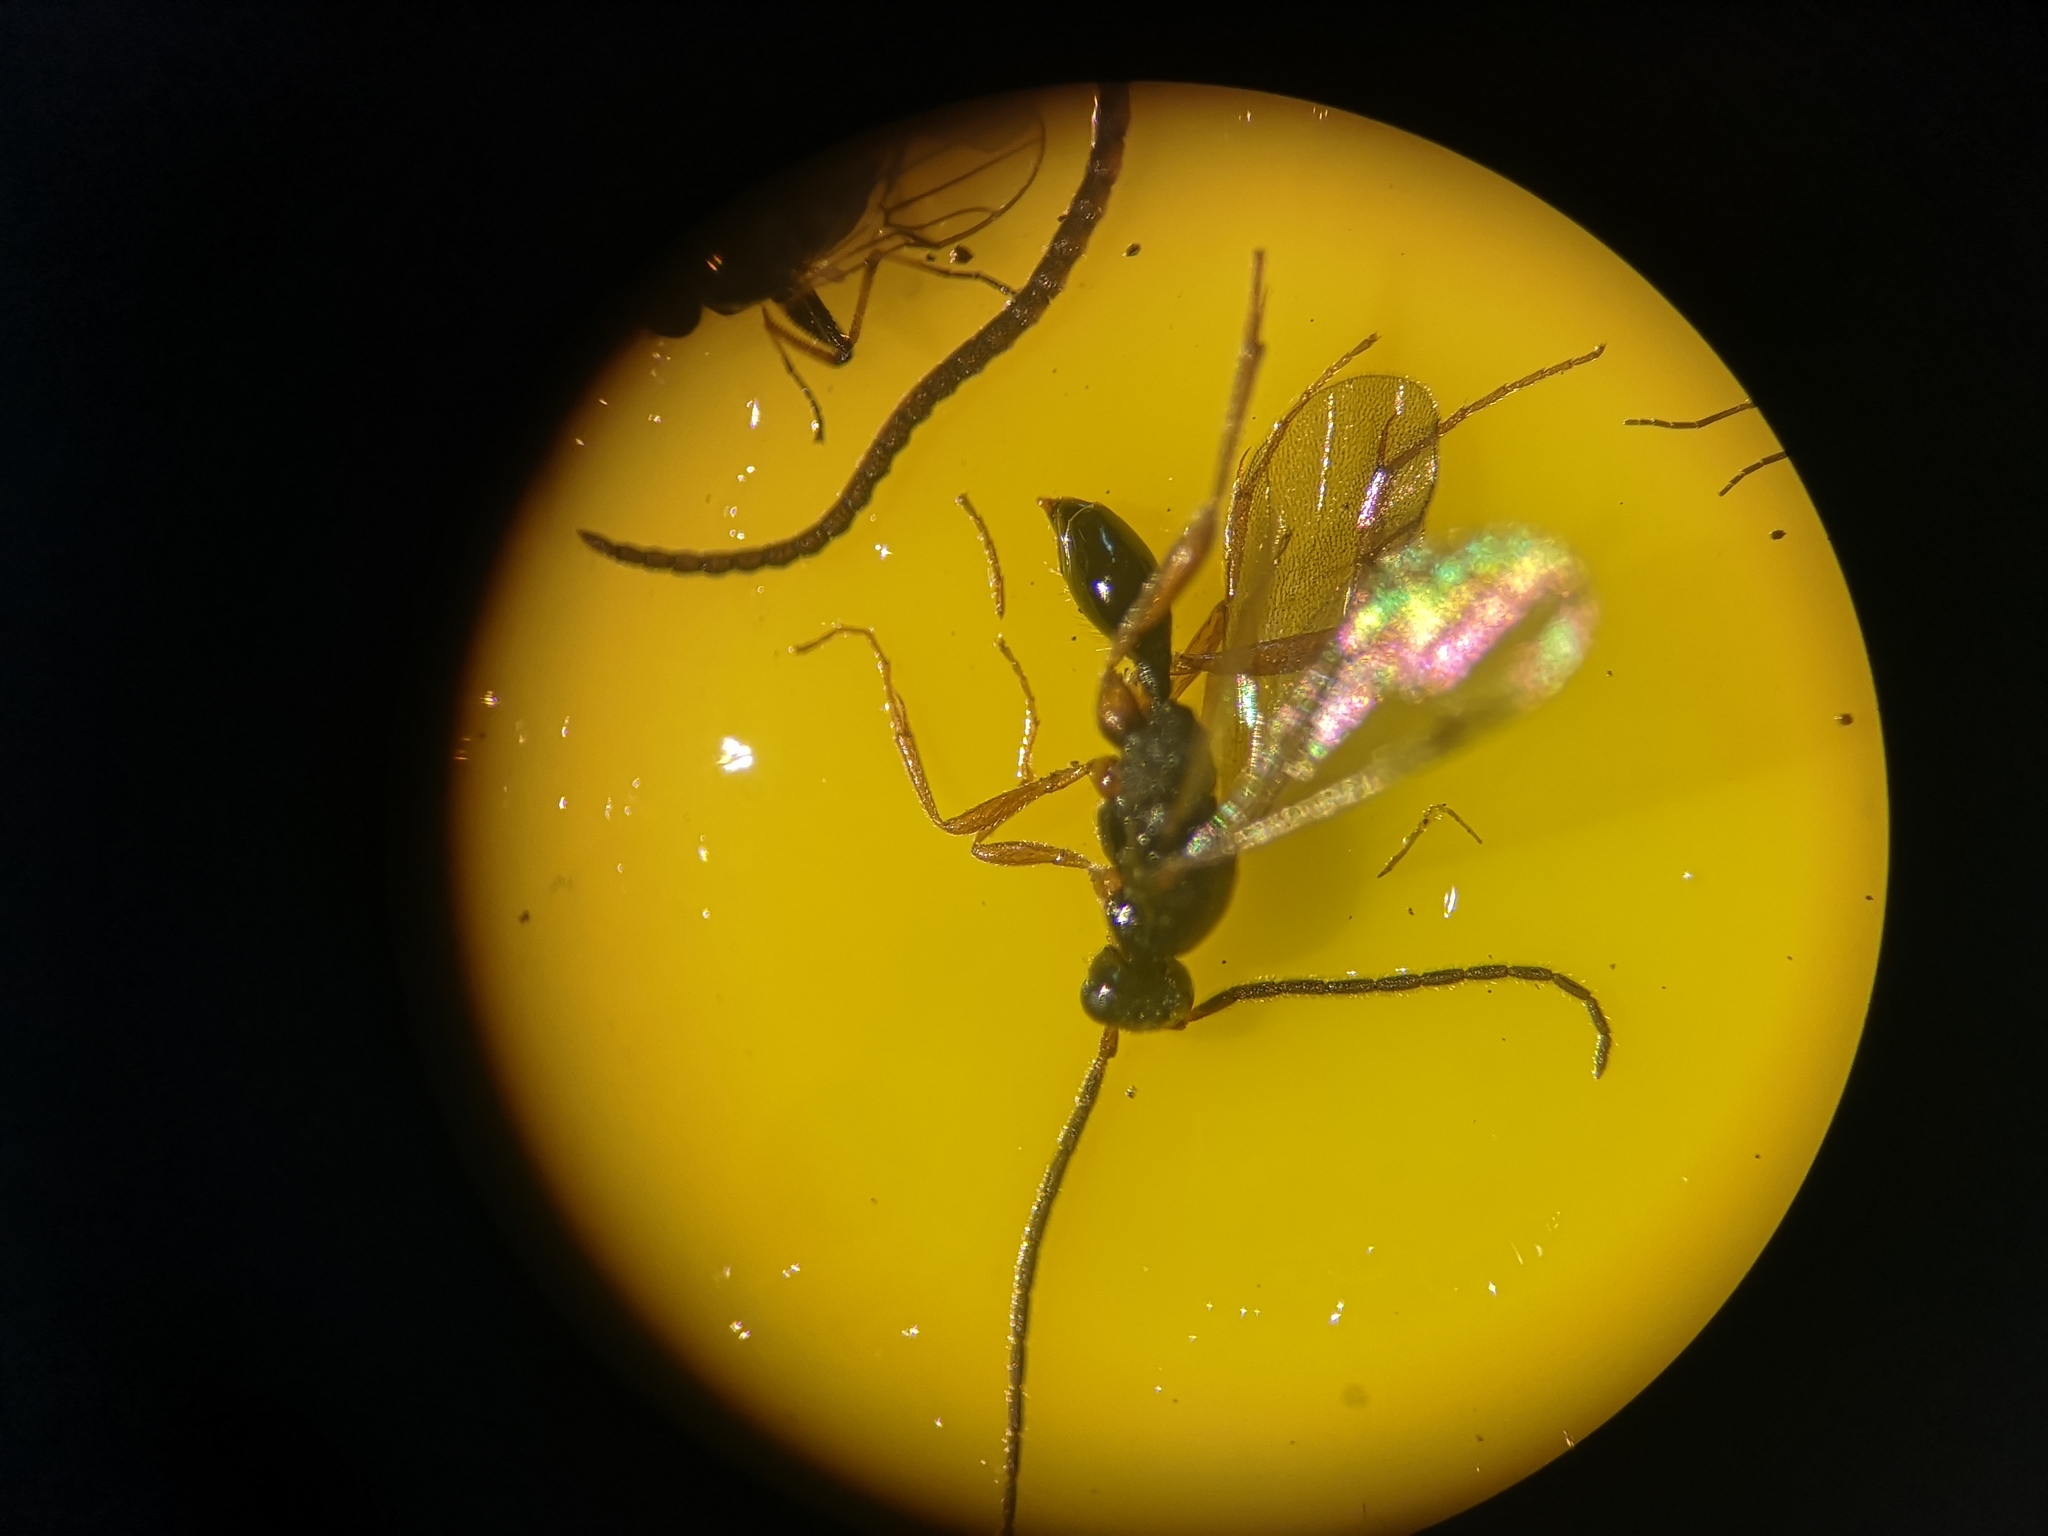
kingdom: Animalia
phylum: Arthropoda
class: Insecta
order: Hymenoptera
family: Proctotrupidae
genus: Phaneroserphus
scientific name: Phaneroserphus calcar
